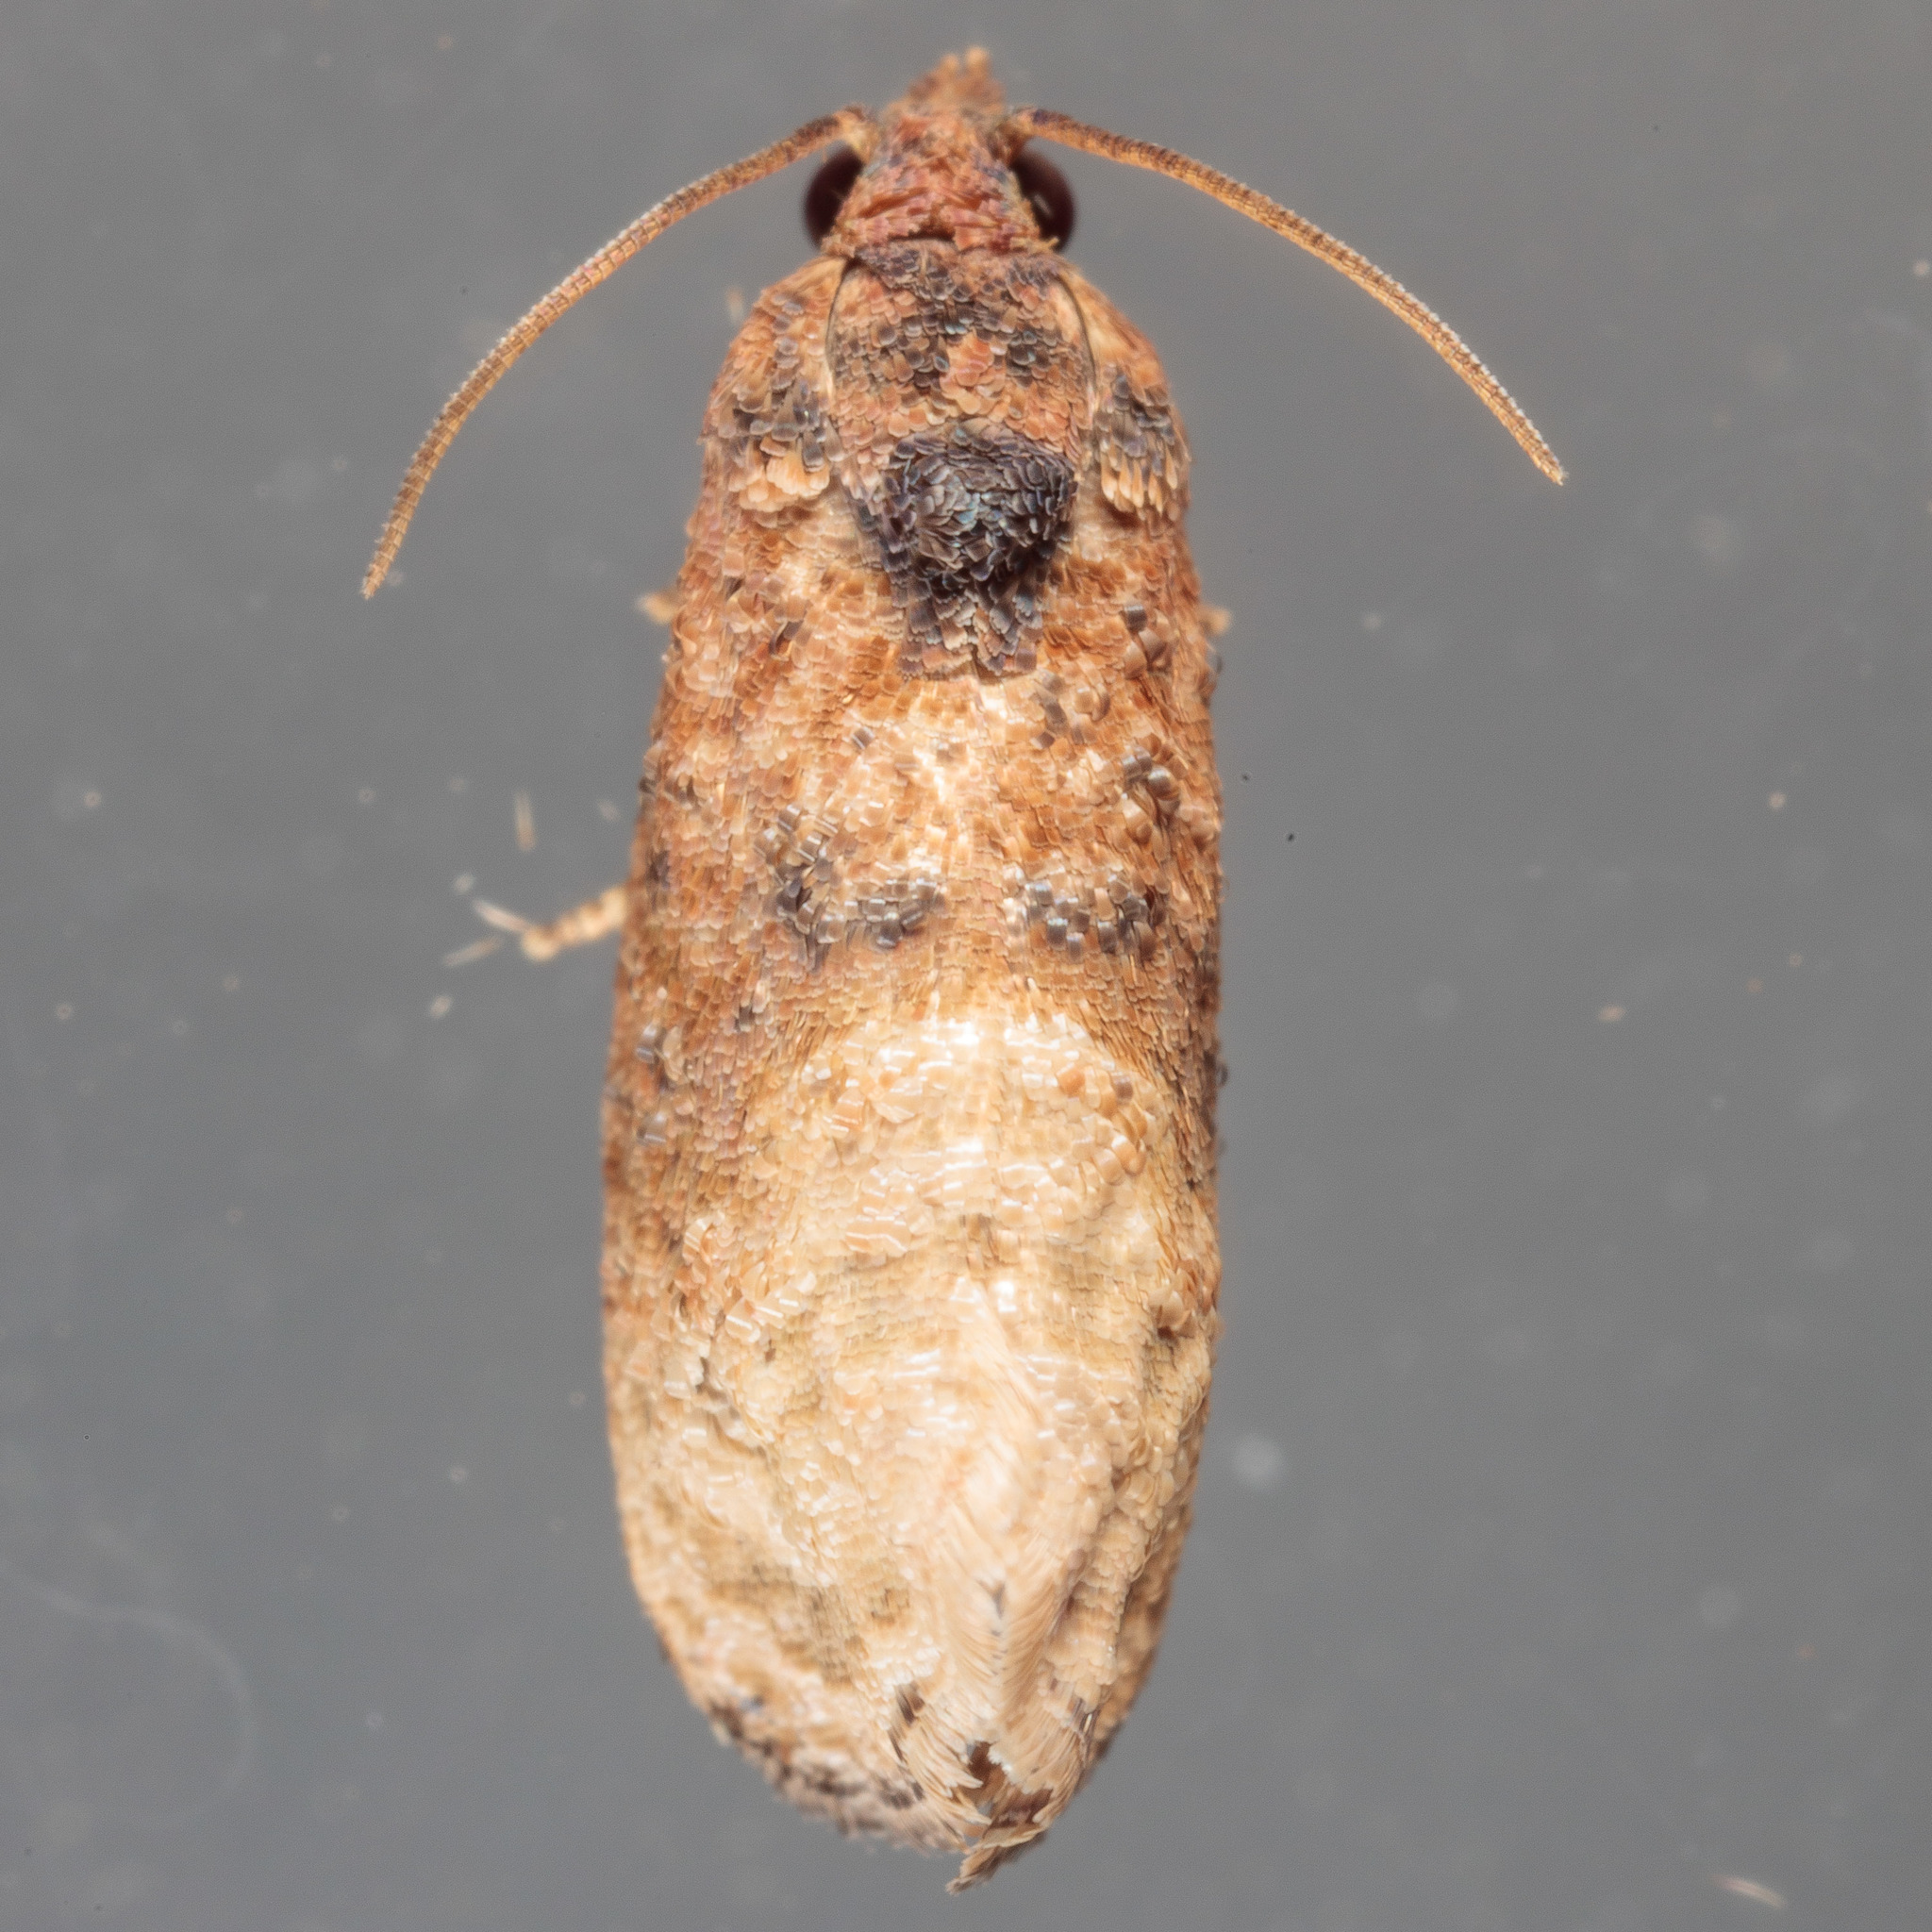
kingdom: Animalia
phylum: Arthropoda
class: Insecta
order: Lepidoptera
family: Tortricidae
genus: Ecdytolopha
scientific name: Ecdytolopha mana
